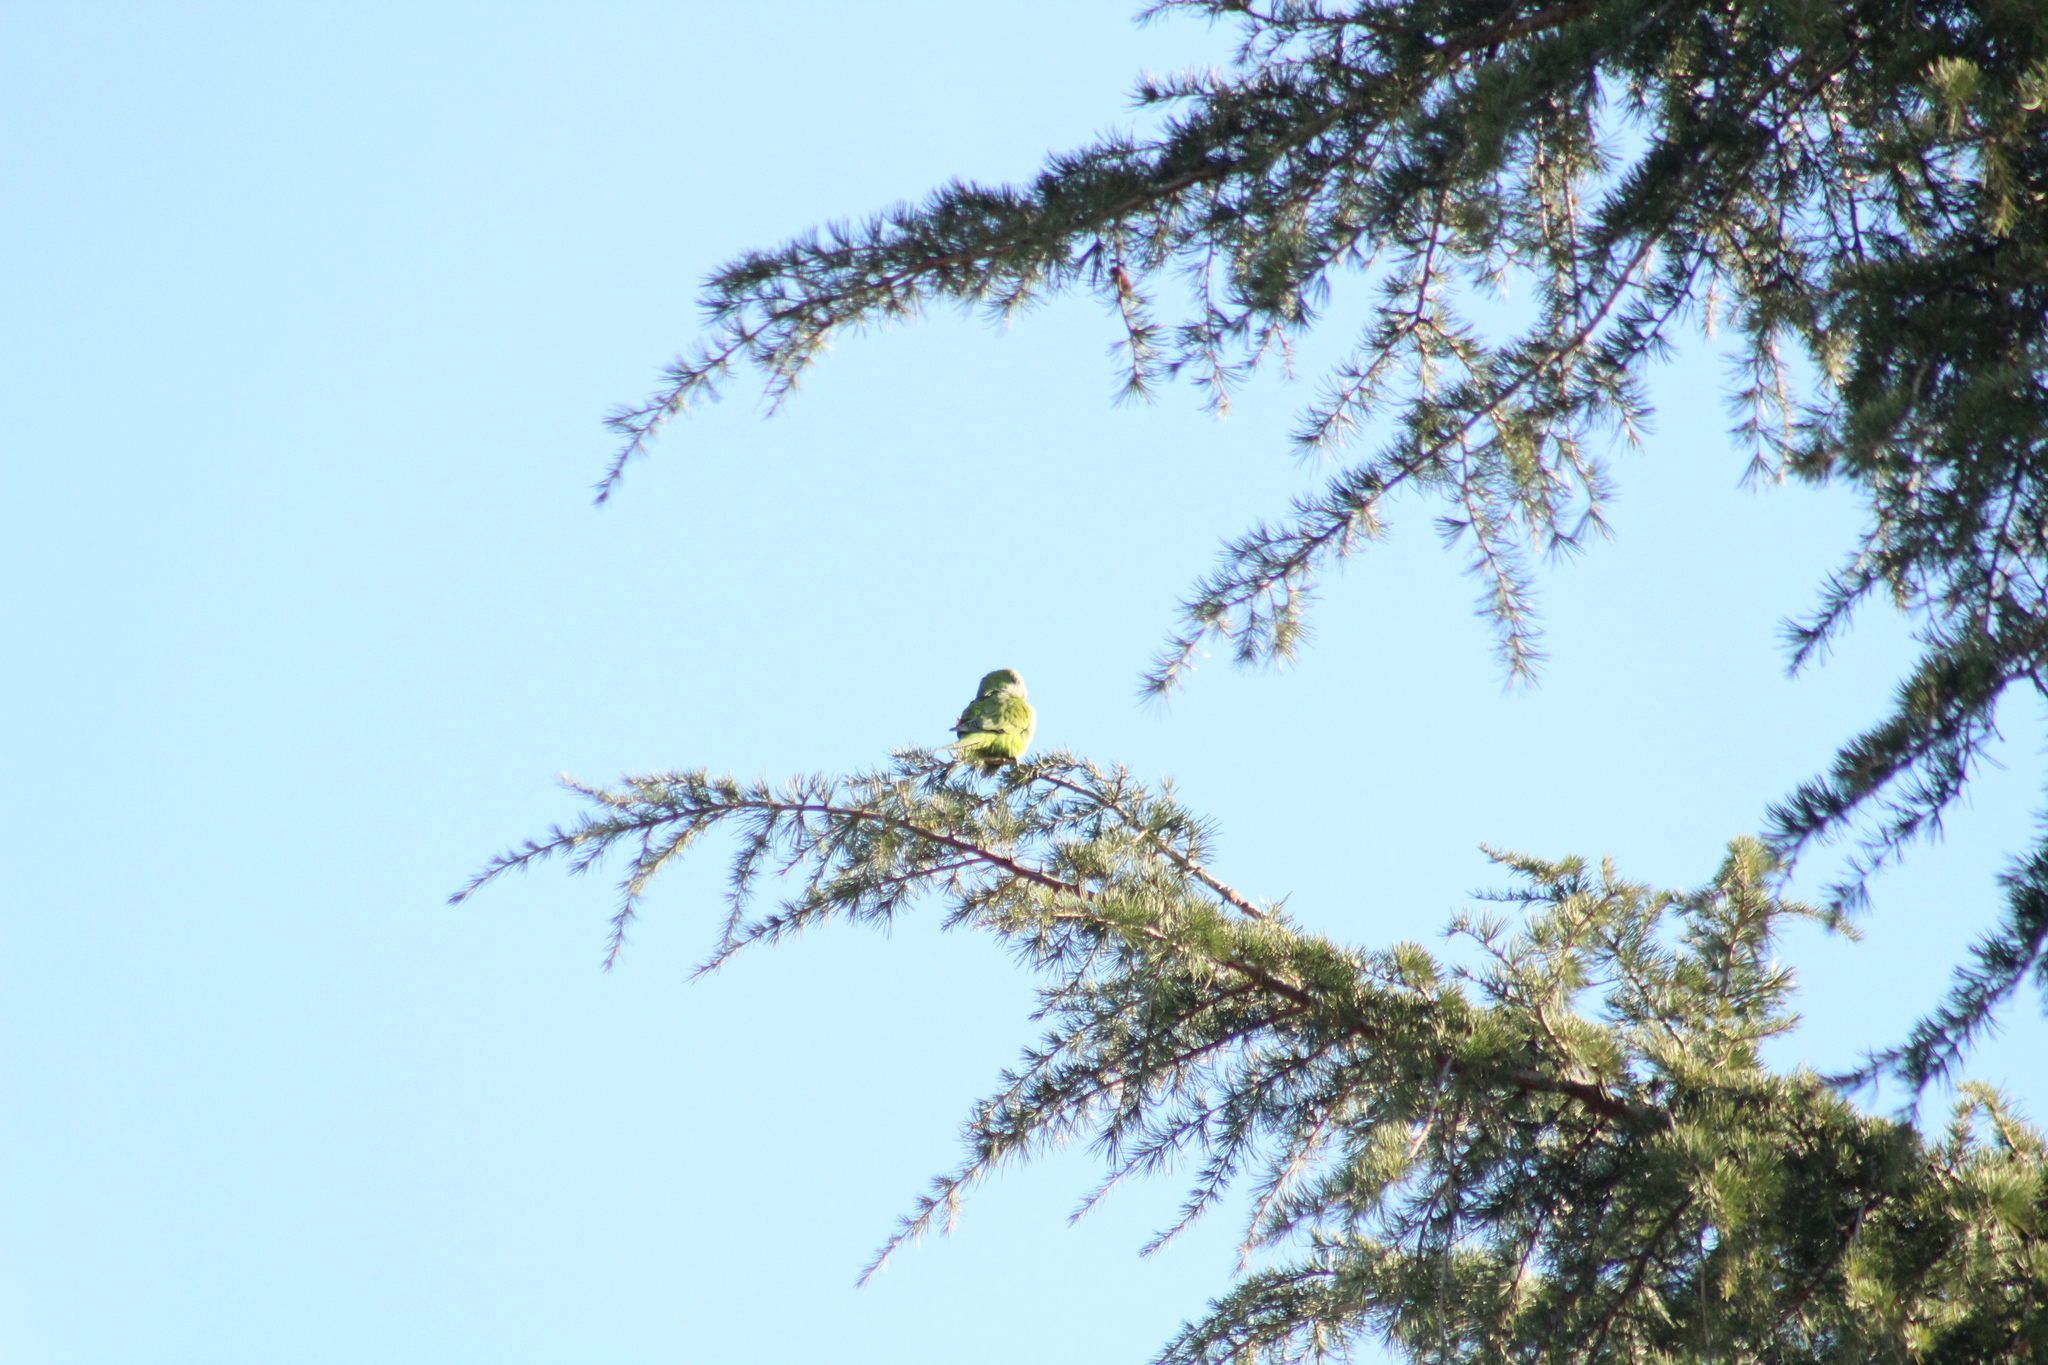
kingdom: Animalia
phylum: Chordata
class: Aves
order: Psittaciformes
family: Psittacidae
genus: Myiopsitta
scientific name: Myiopsitta monachus
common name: Monk parakeet
